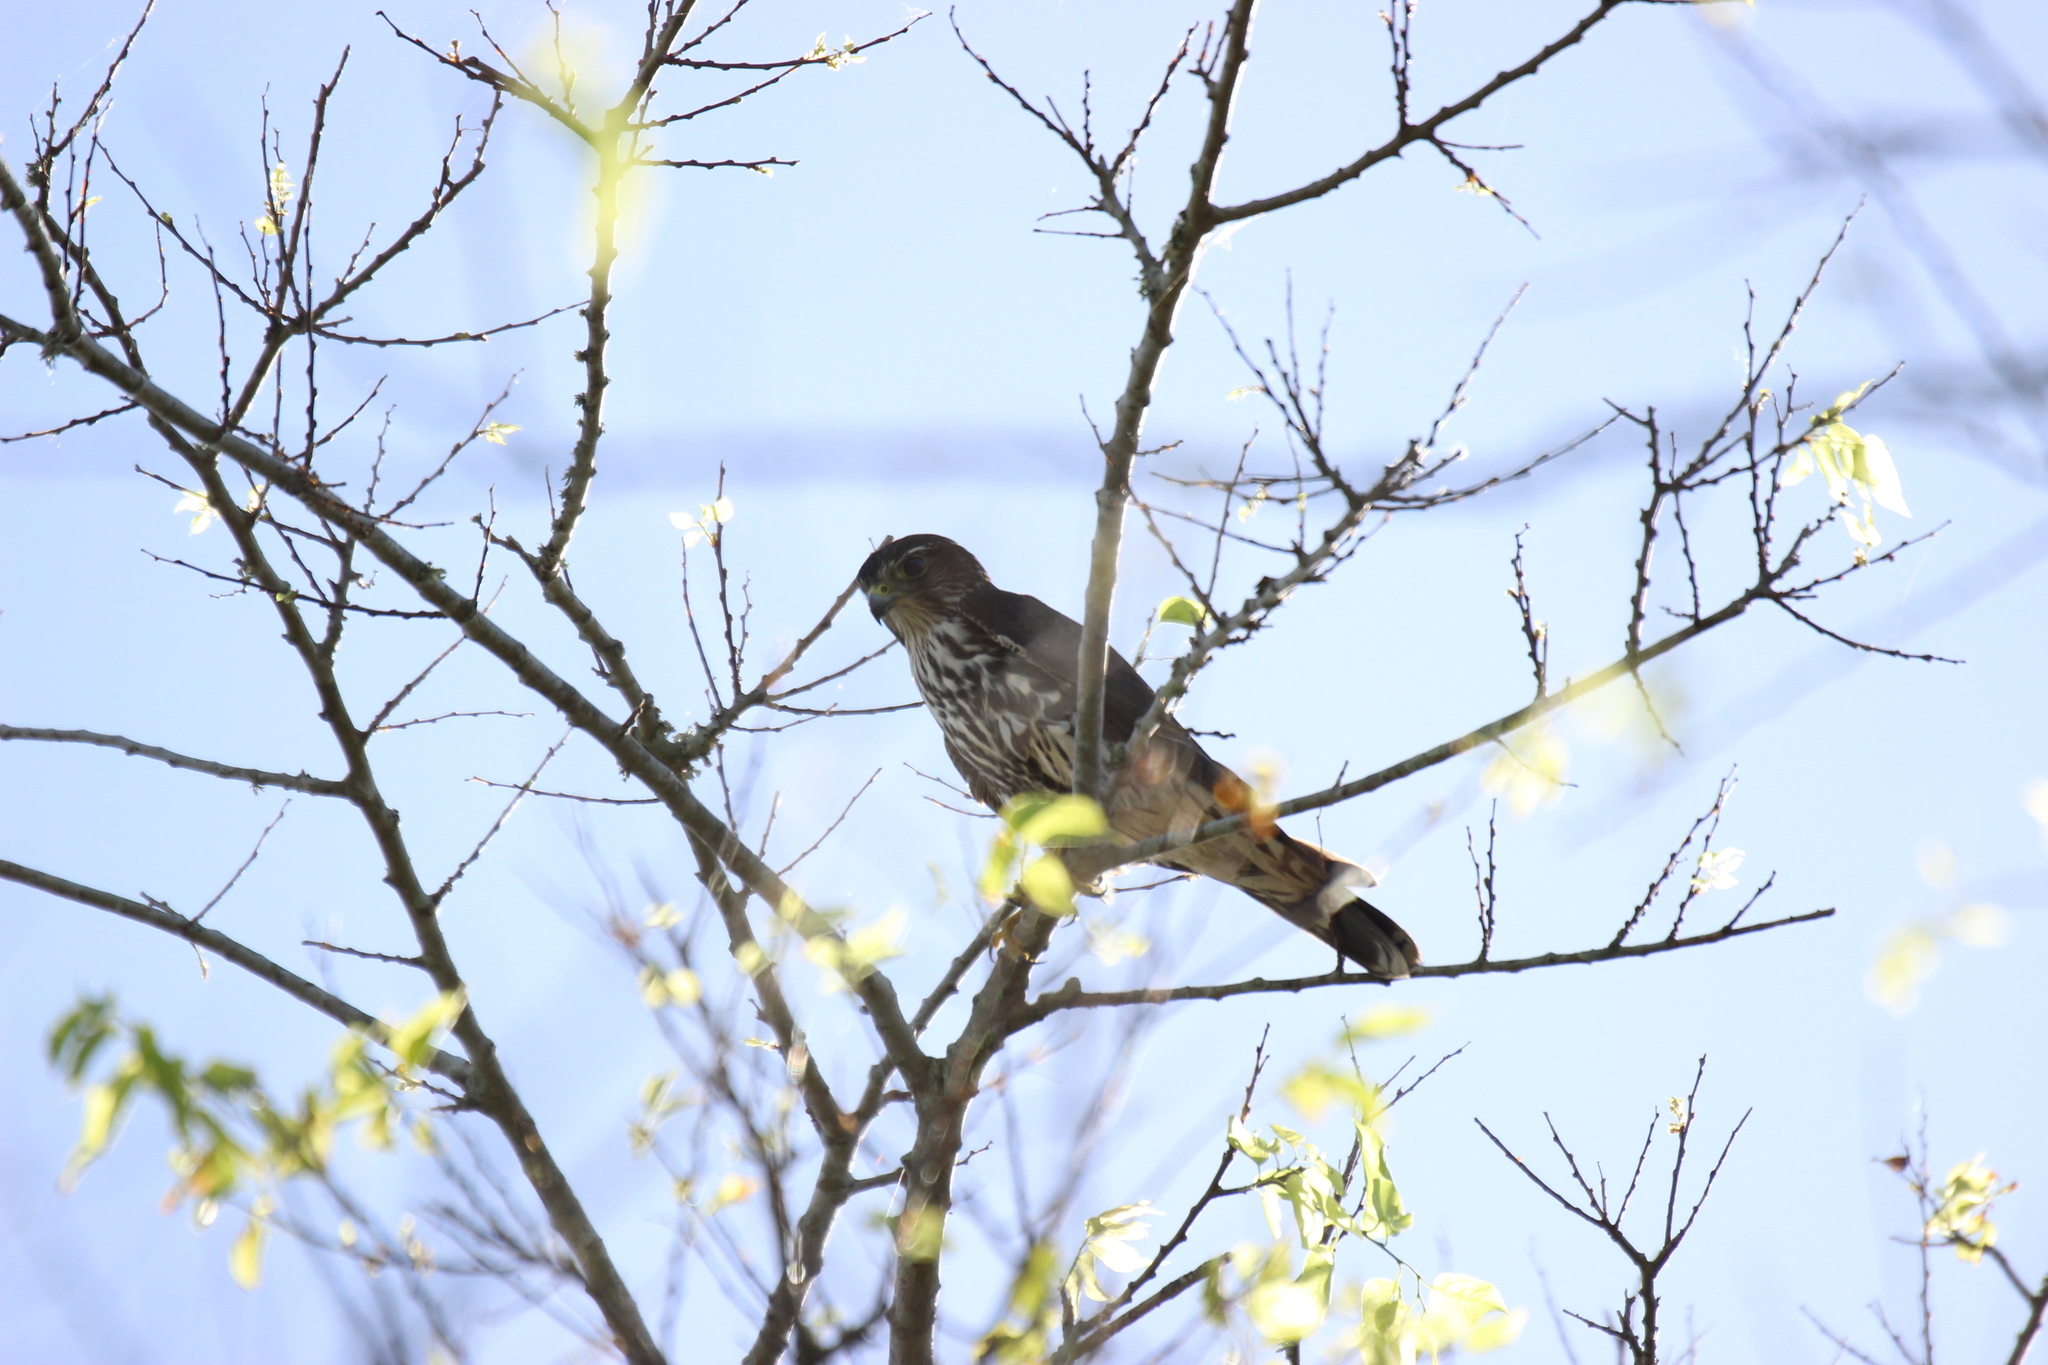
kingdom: Animalia
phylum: Chordata
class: Aves
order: Falconiformes
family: Falconidae
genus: Falco
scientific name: Falco columbarius
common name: Merlin
